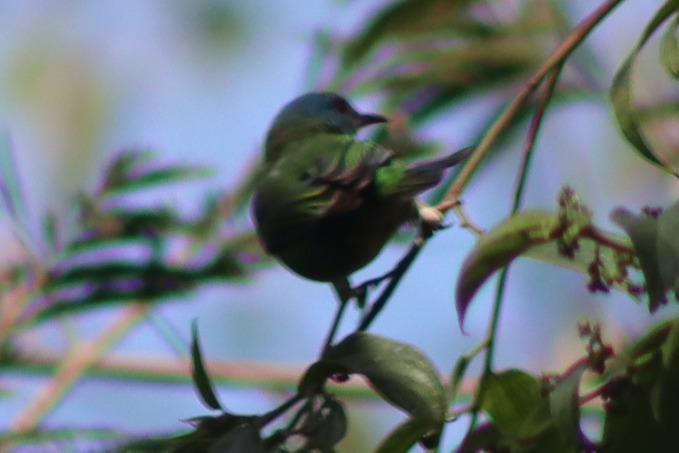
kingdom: Animalia
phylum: Chordata
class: Aves
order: Passeriformes
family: Thraupidae
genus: Dacnis
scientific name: Dacnis cayana
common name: Blue dacnis
